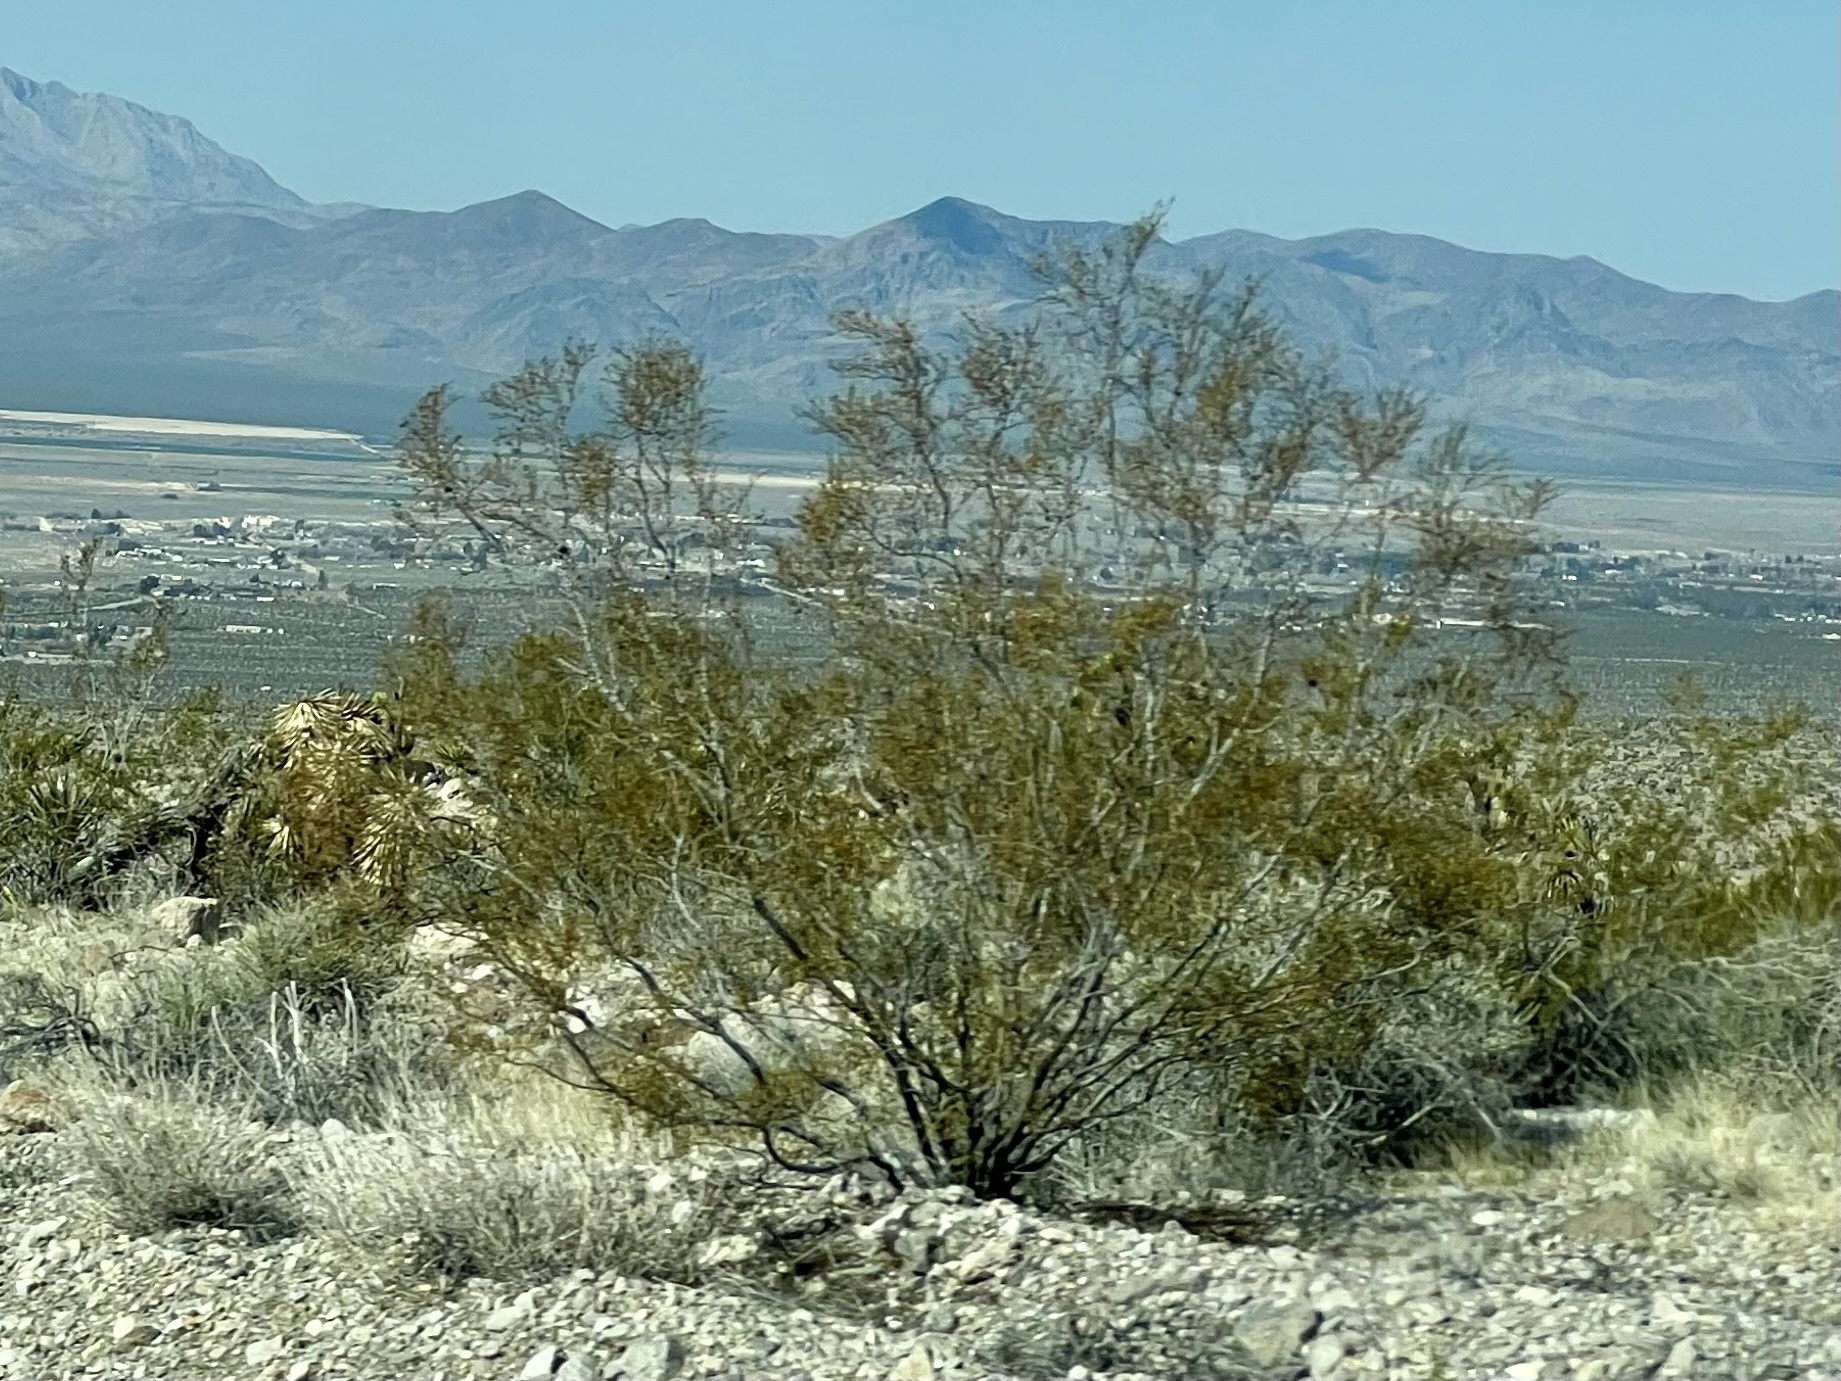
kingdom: Plantae
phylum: Tracheophyta
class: Magnoliopsida
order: Zygophyllales
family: Zygophyllaceae
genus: Larrea
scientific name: Larrea tridentata
